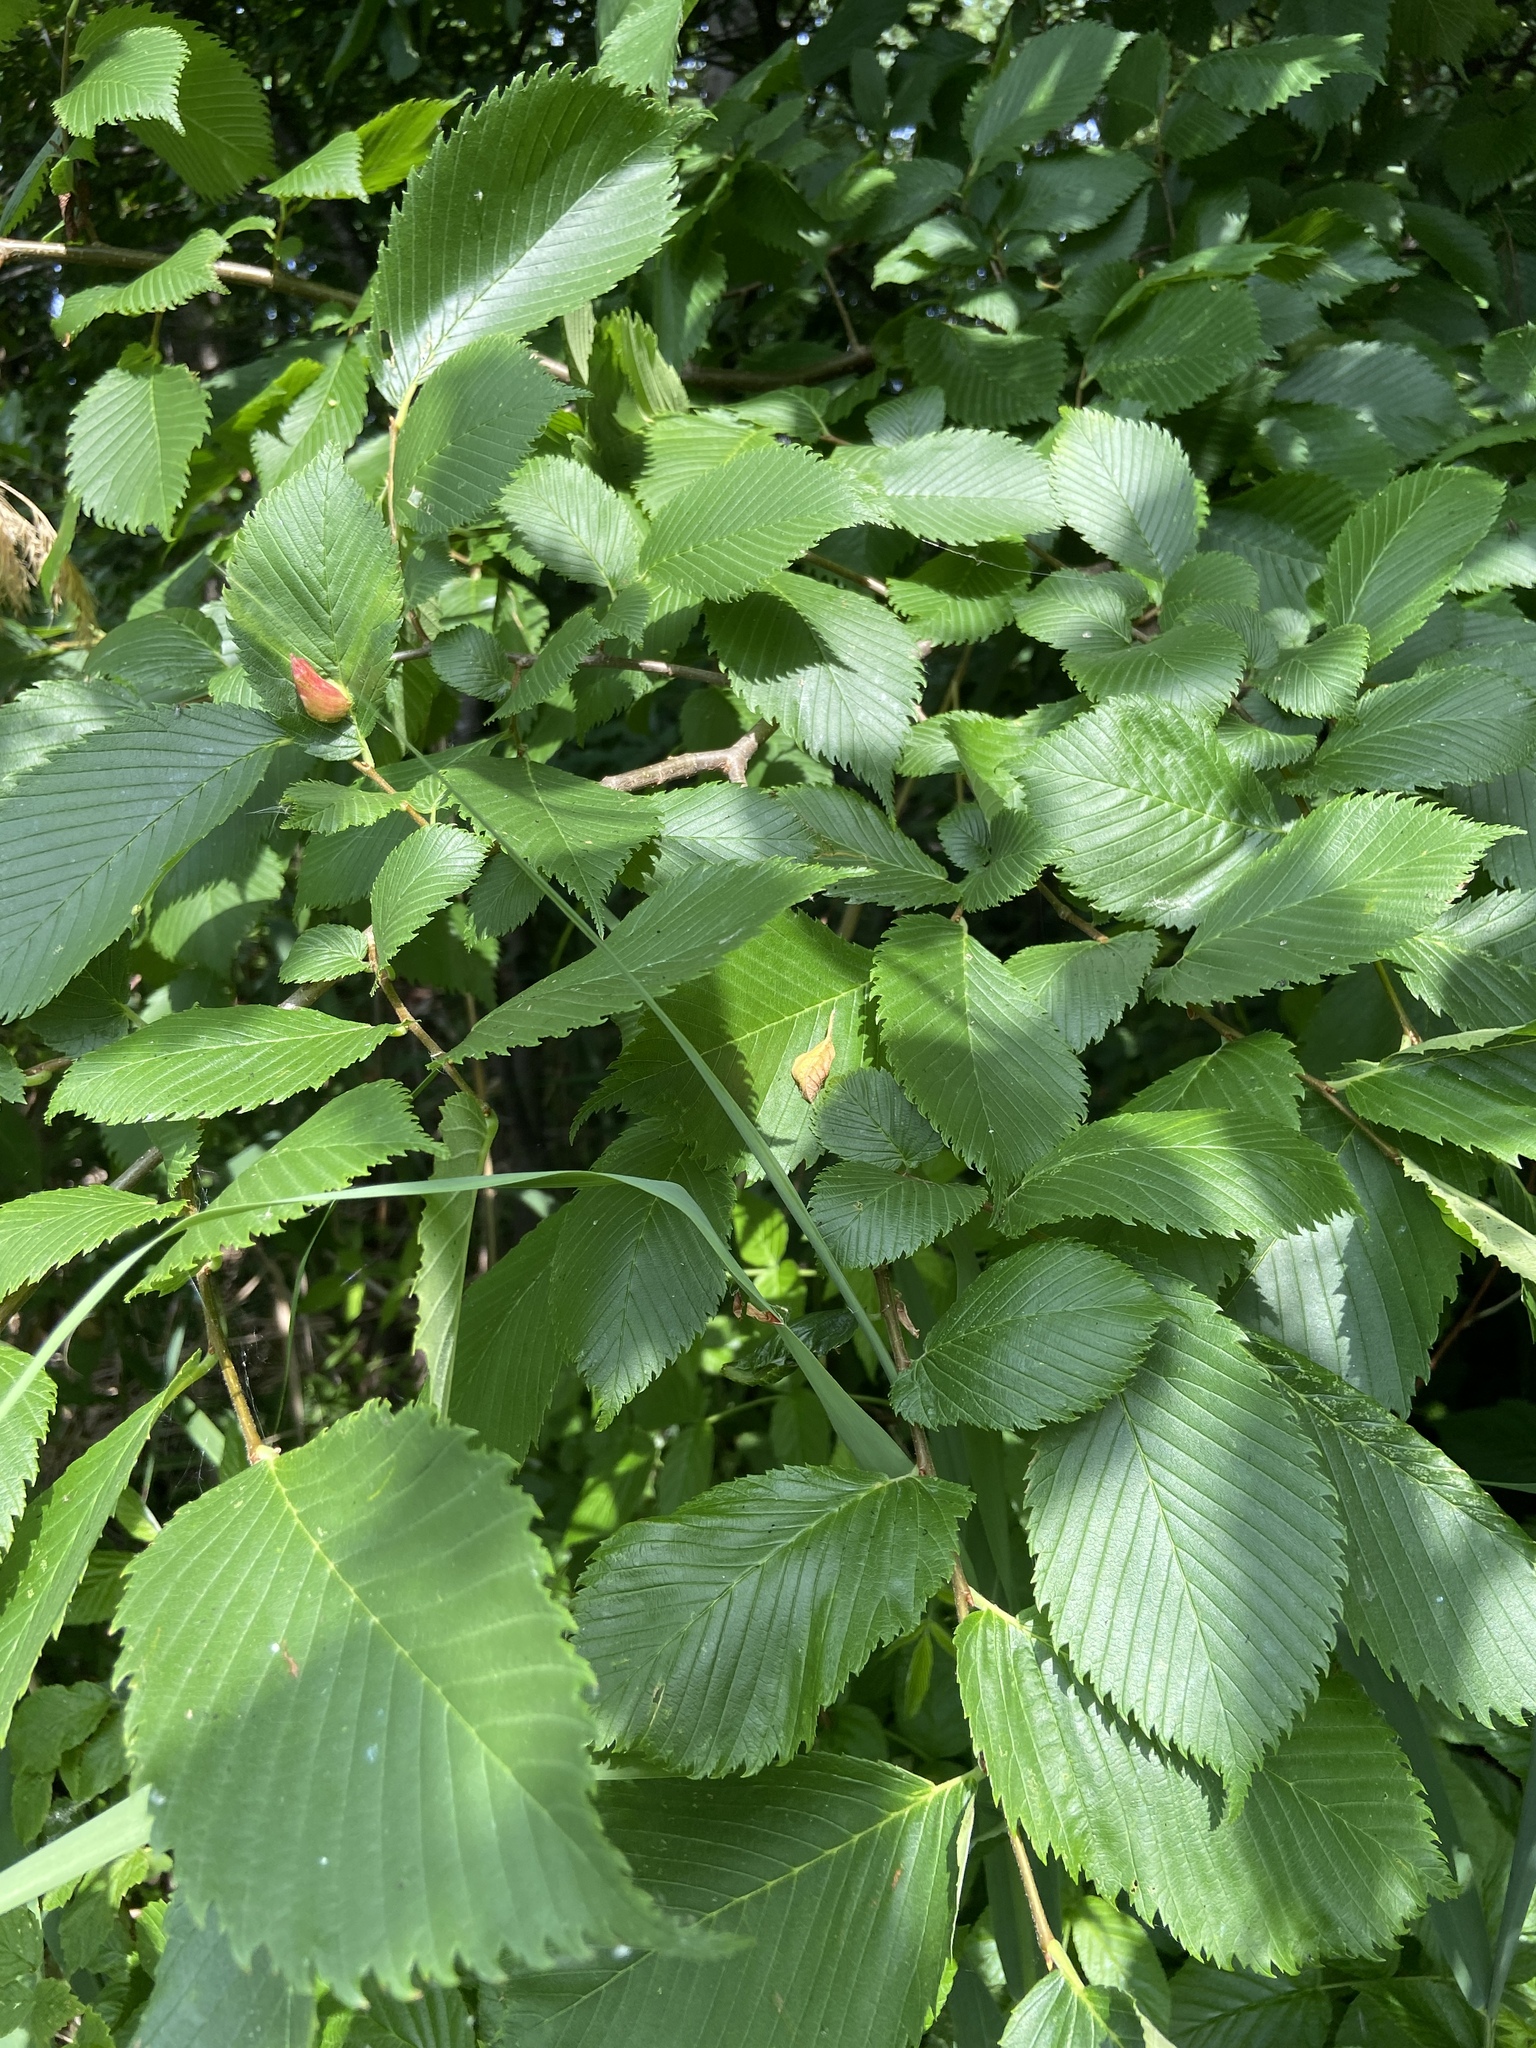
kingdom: Plantae
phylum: Tracheophyta
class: Magnoliopsida
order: Rosales
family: Ulmaceae
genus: Ulmus
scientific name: Ulmus laevis
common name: European white-elm
